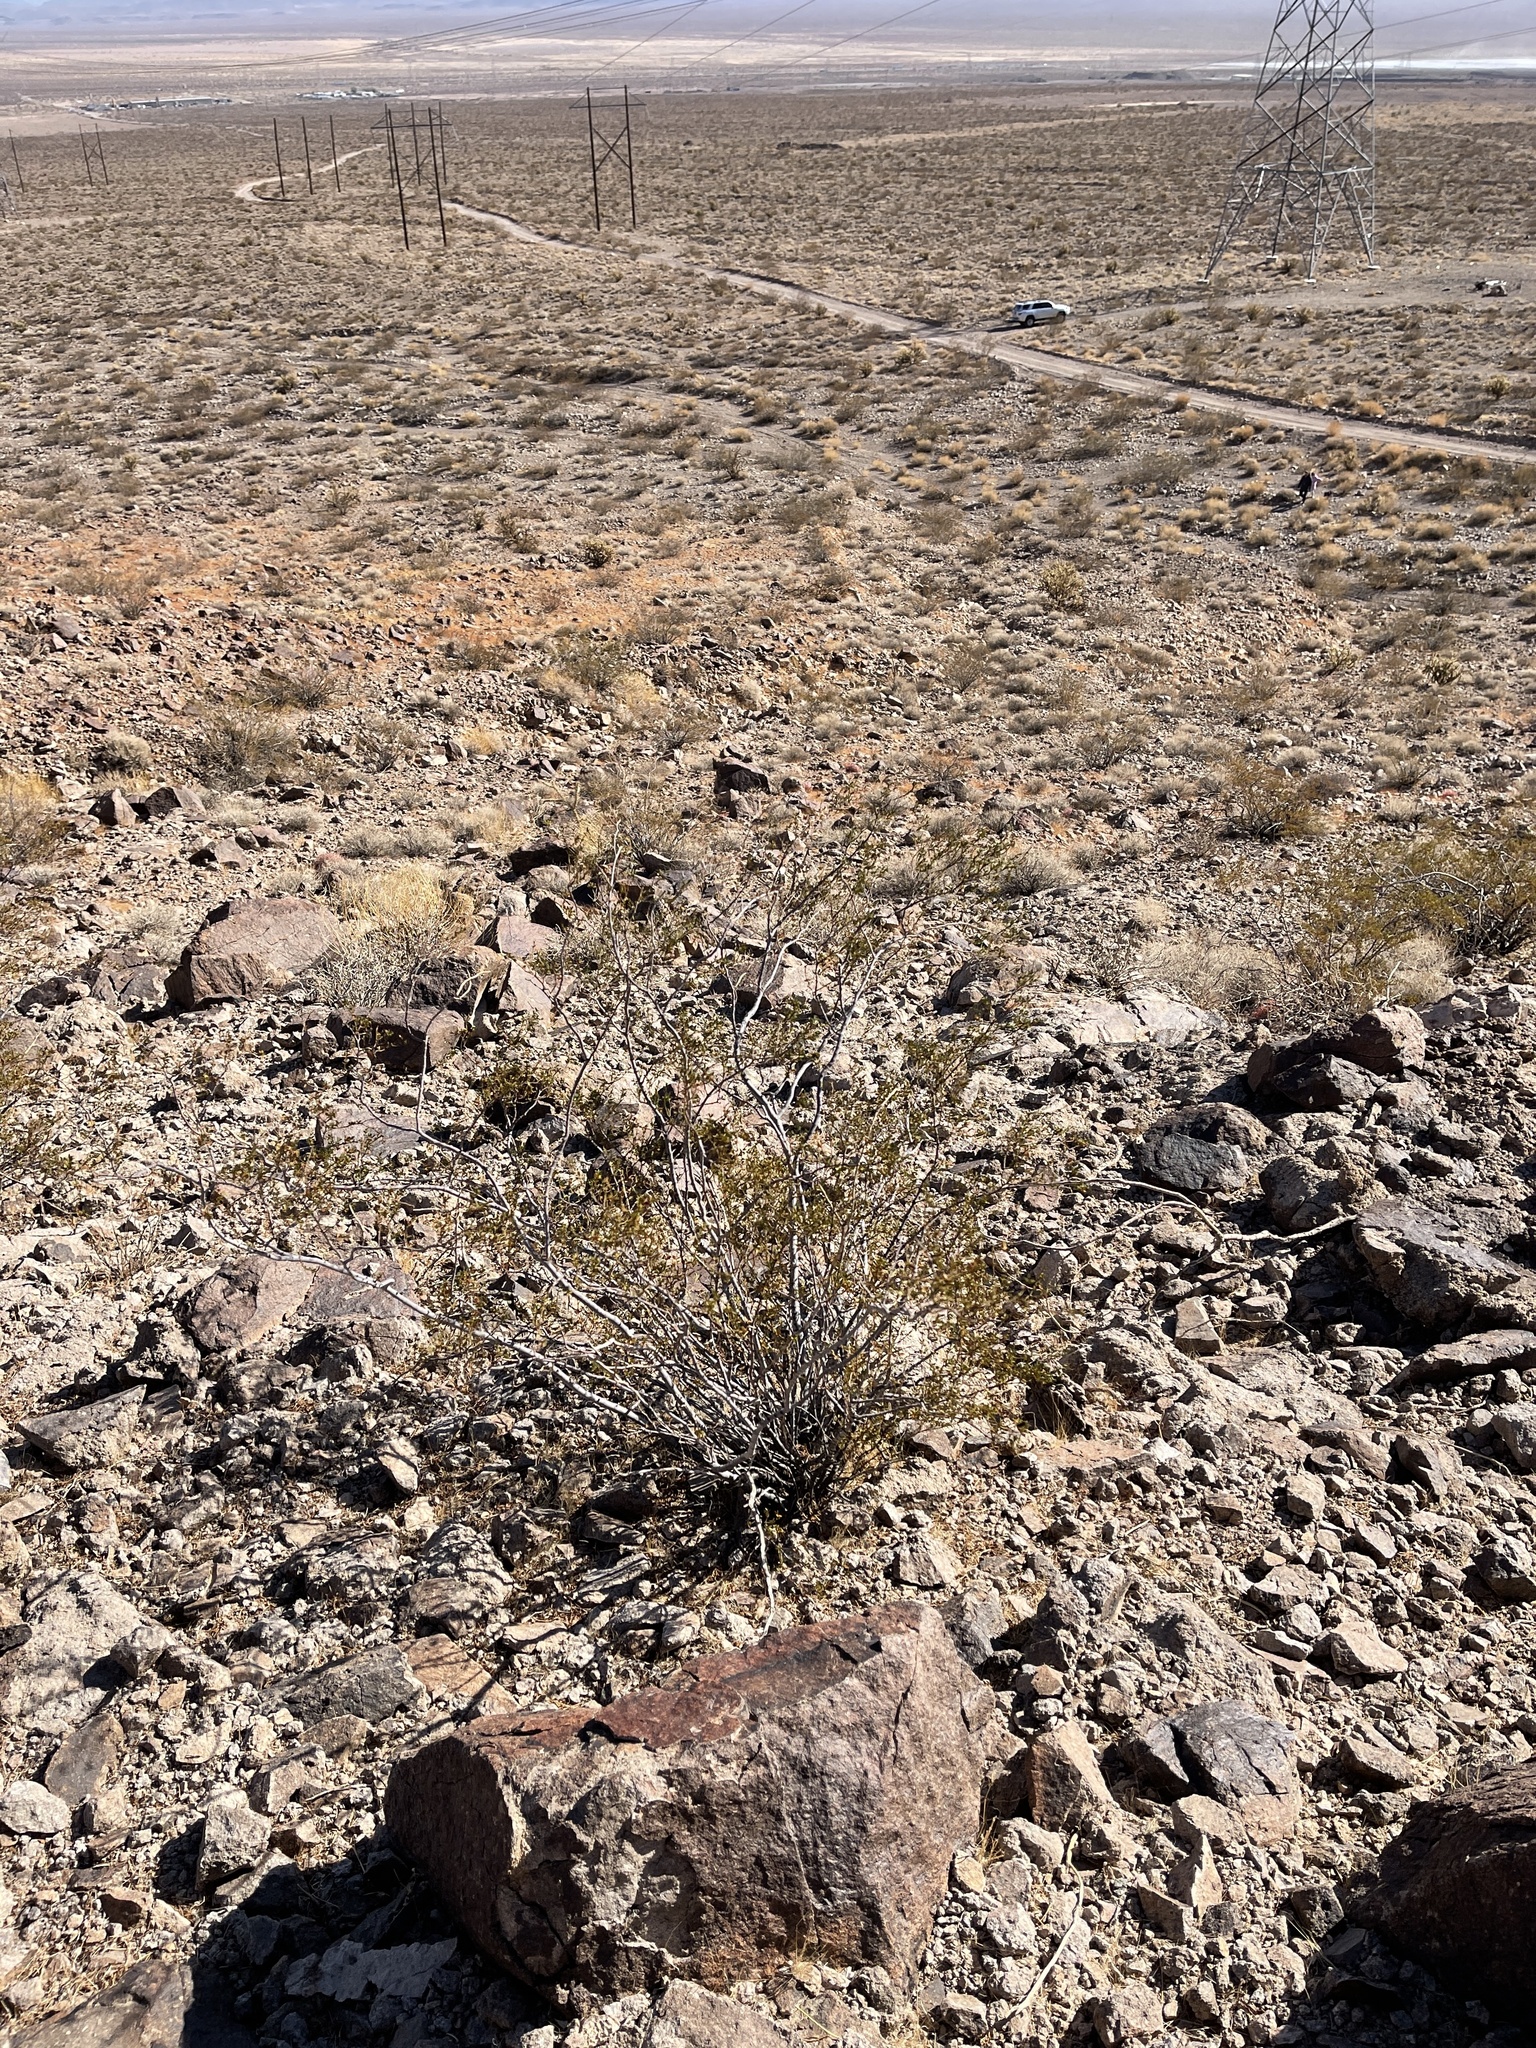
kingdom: Plantae
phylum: Tracheophyta
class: Magnoliopsida
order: Zygophyllales
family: Zygophyllaceae
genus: Larrea
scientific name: Larrea tridentata
